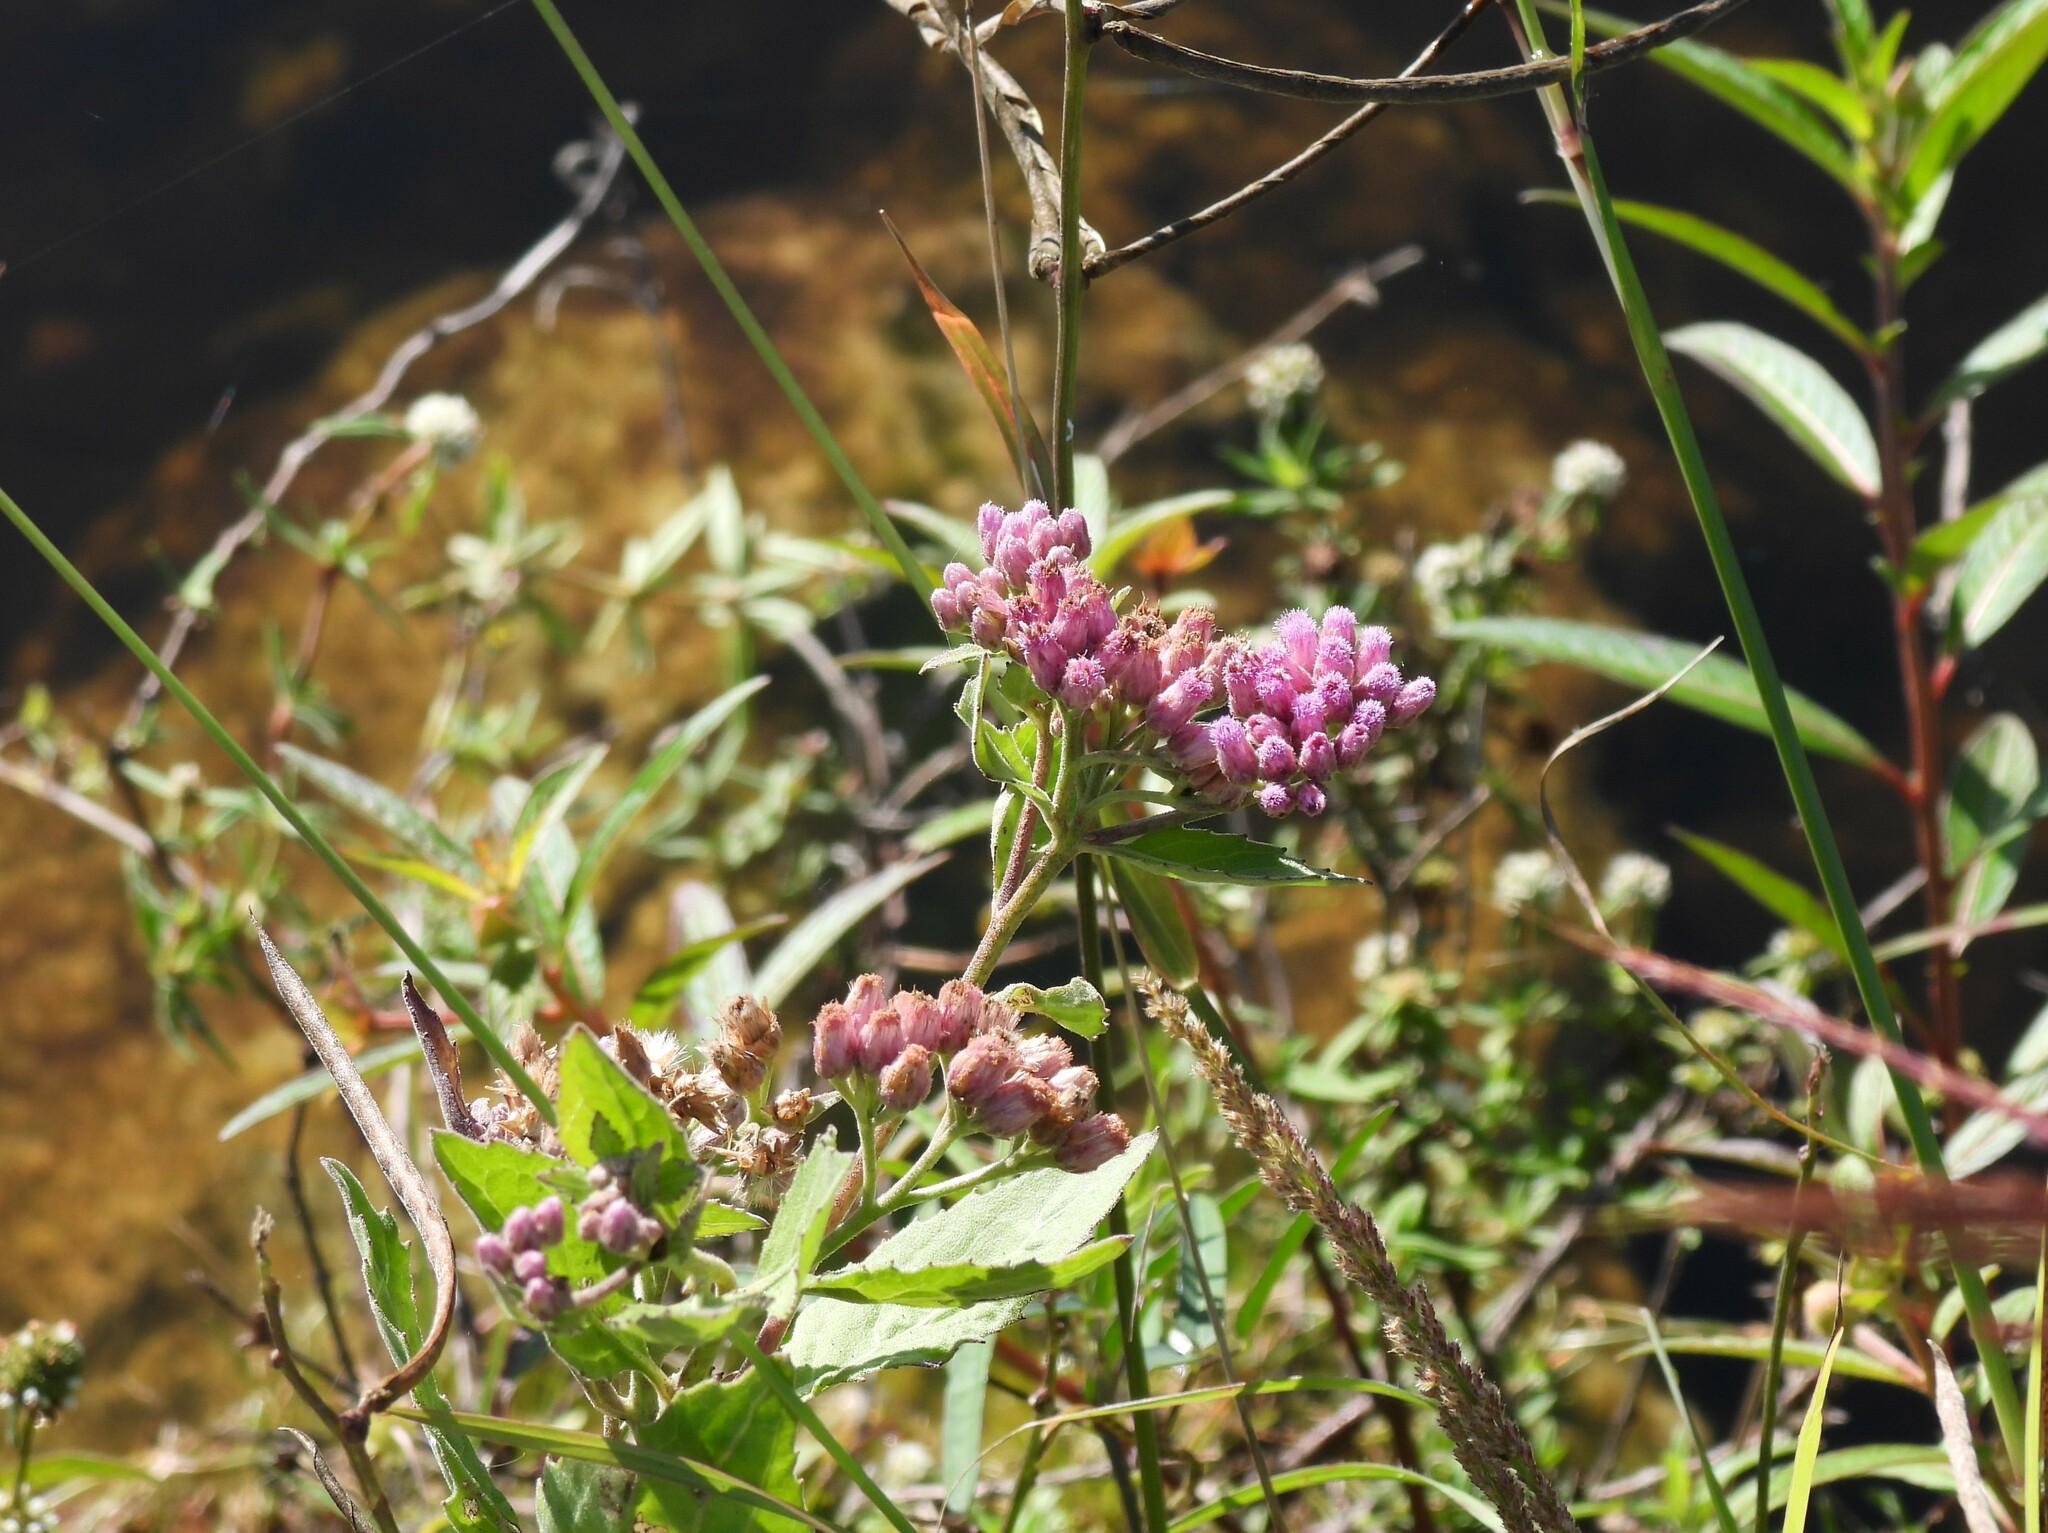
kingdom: Plantae
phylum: Tracheophyta
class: Magnoliopsida
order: Asterales
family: Asteraceae
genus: Pluchea
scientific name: Pluchea odorata
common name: Saltmarsh fleabane
